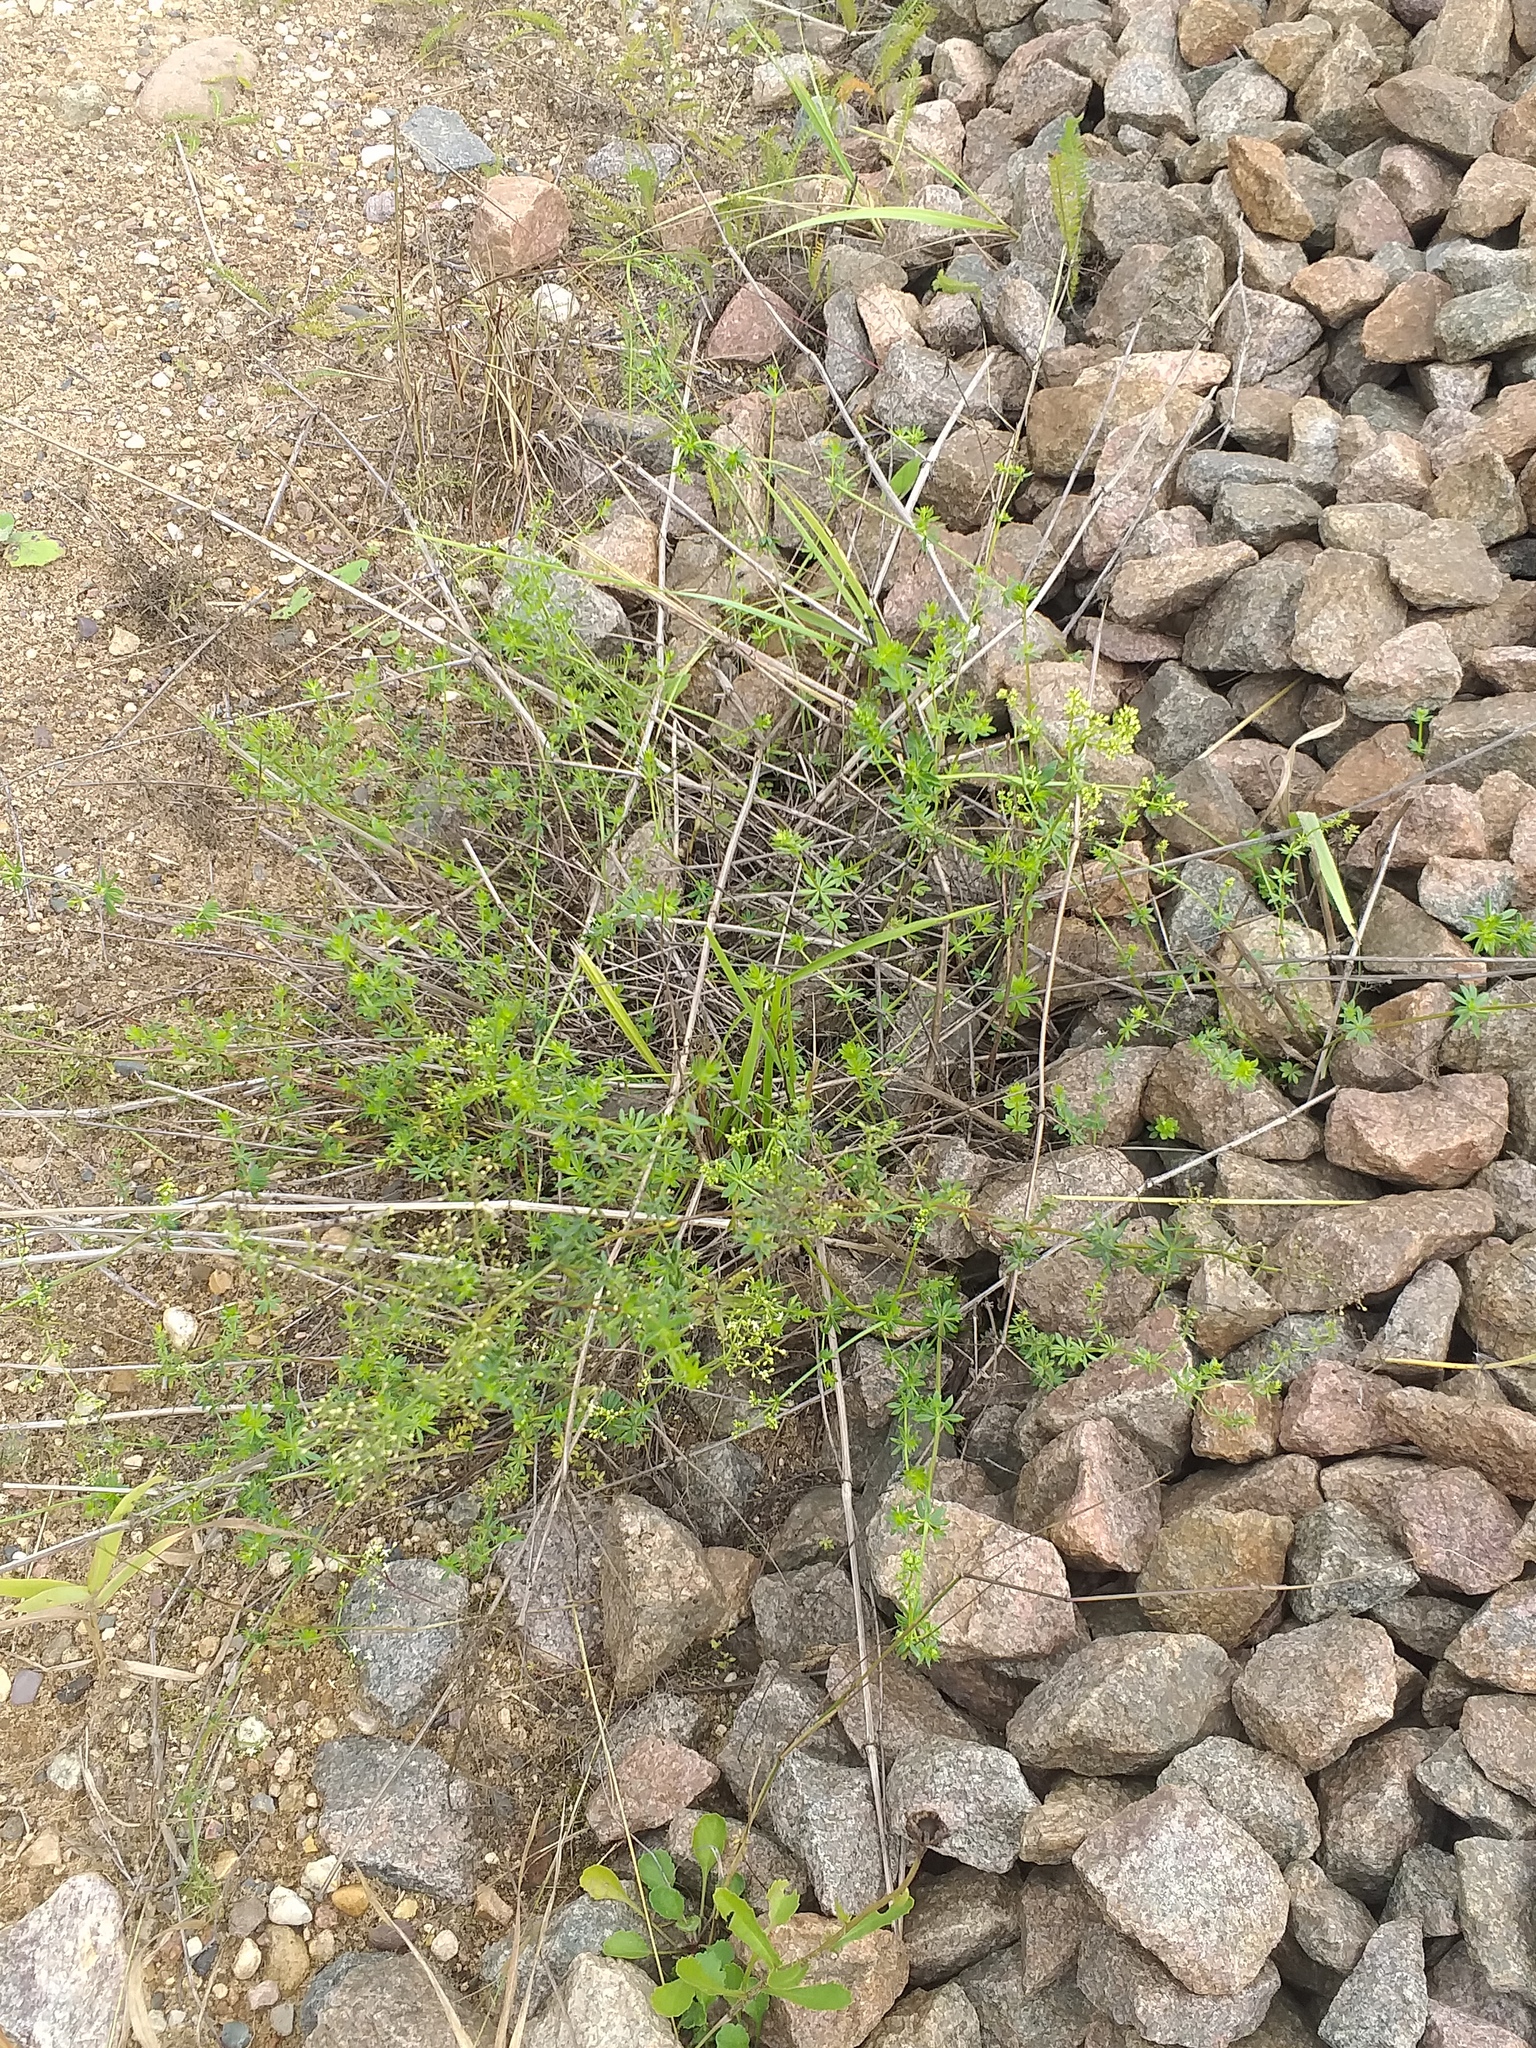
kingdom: Plantae
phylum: Tracheophyta
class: Magnoliopsida
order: Gentianales
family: Rubiaceae
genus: Galium
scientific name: Galium mollugo
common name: Hedge bedstraw
